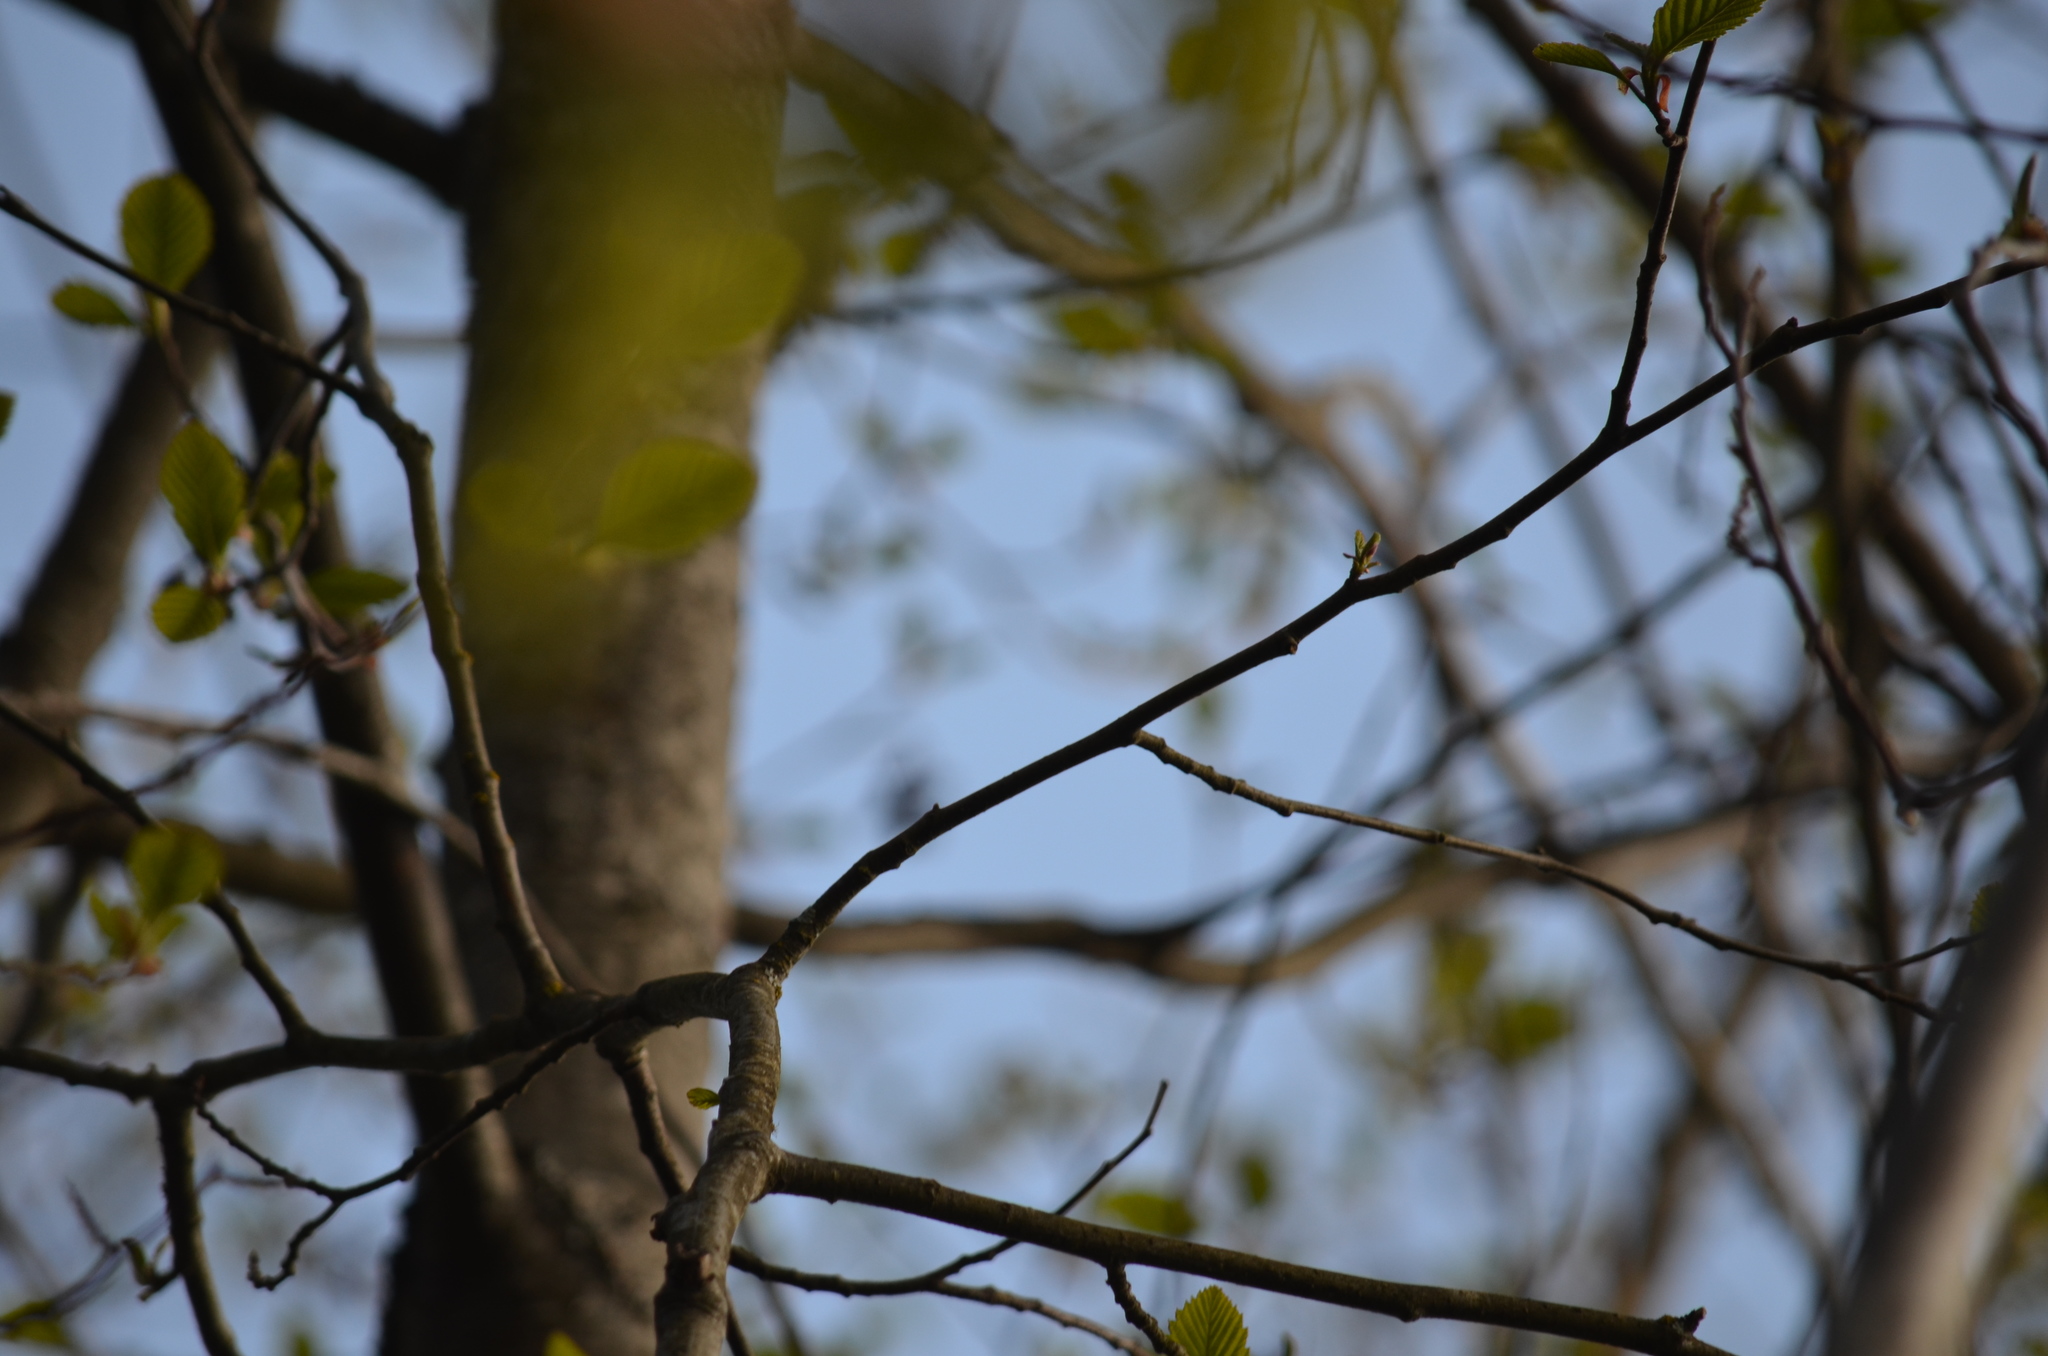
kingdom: Animalia
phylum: Chordata
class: Aves
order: Passeriformes
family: Regulidae
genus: Regulus
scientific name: Regulus calendula
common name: Ruby-crowned kinglet
